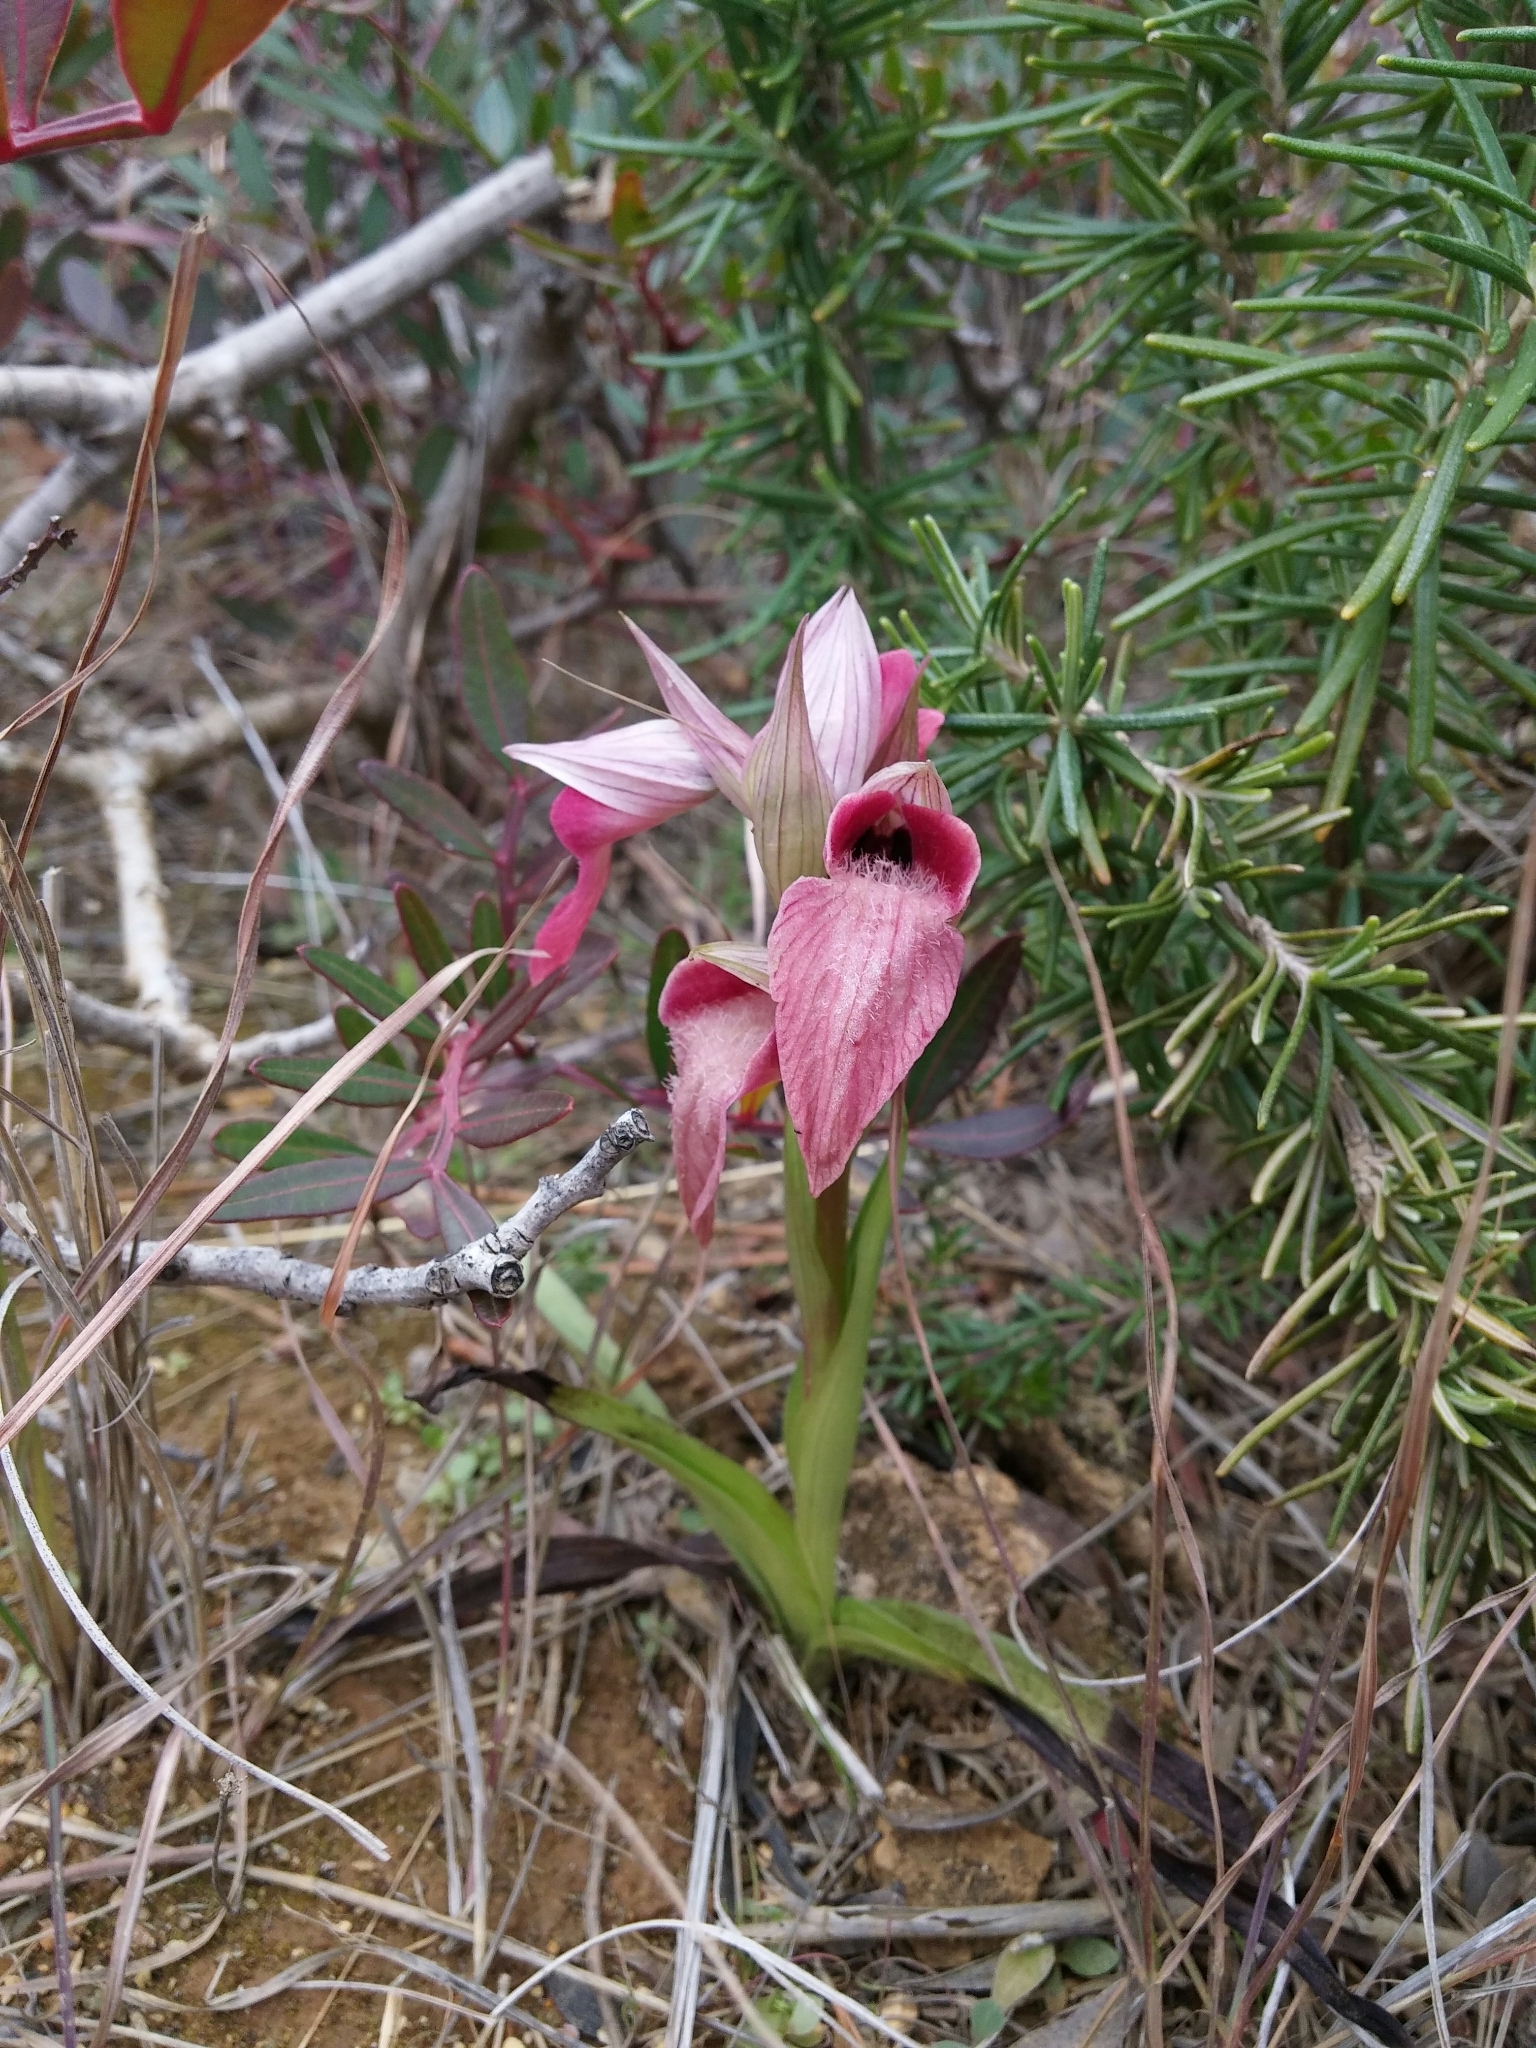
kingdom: Plantae
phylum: Tracheophyta
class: Liliopsida
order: Asparagales
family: Orchidaceae
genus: Serapias
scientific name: Serapias neglecta
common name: Neglected serapias
